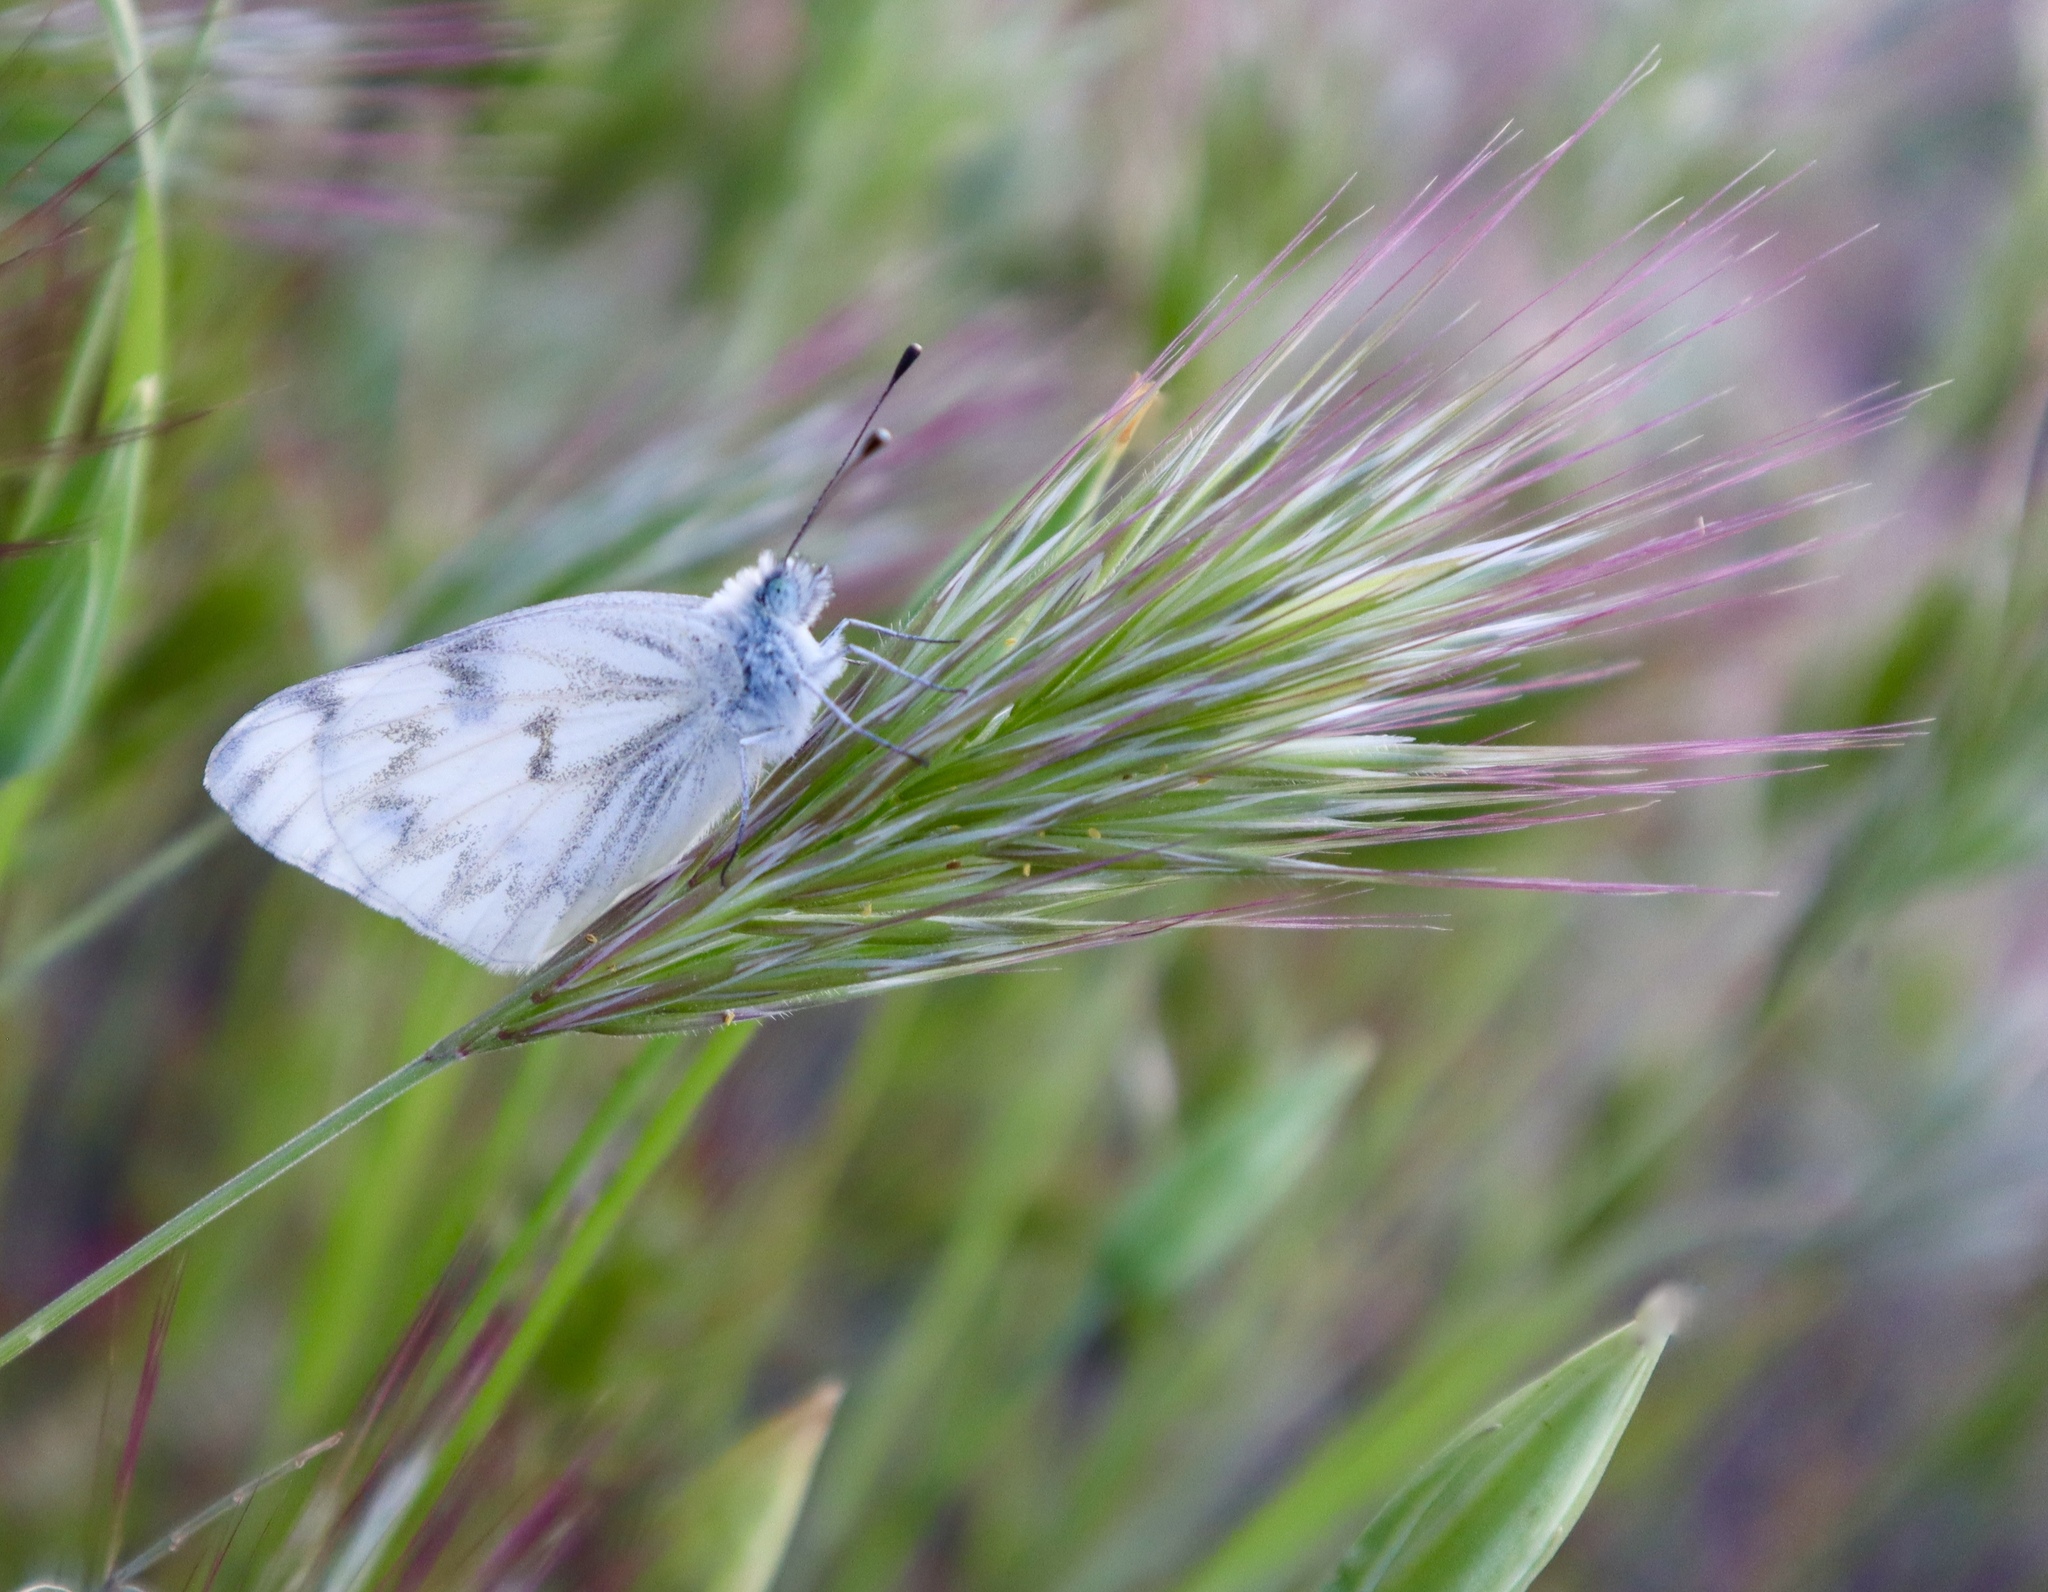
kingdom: Animalia
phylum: Arthropoda
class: Insecta
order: Lepidoptera
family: Pieridae
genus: Pontia
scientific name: Pontia protodice
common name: Checkered white
